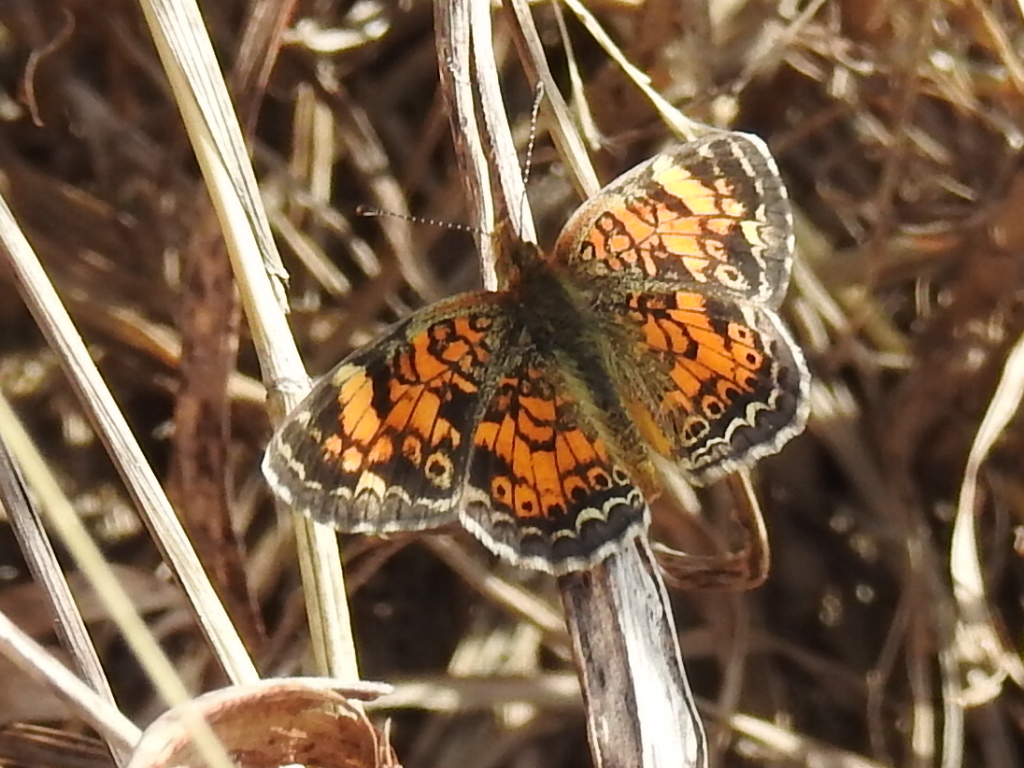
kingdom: Animalia
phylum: Arthropoda
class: Insecta
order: Lepidoptera
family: Nymphalidae
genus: Phyciodes
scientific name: Phyciodes tharos
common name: Pearl crescent
